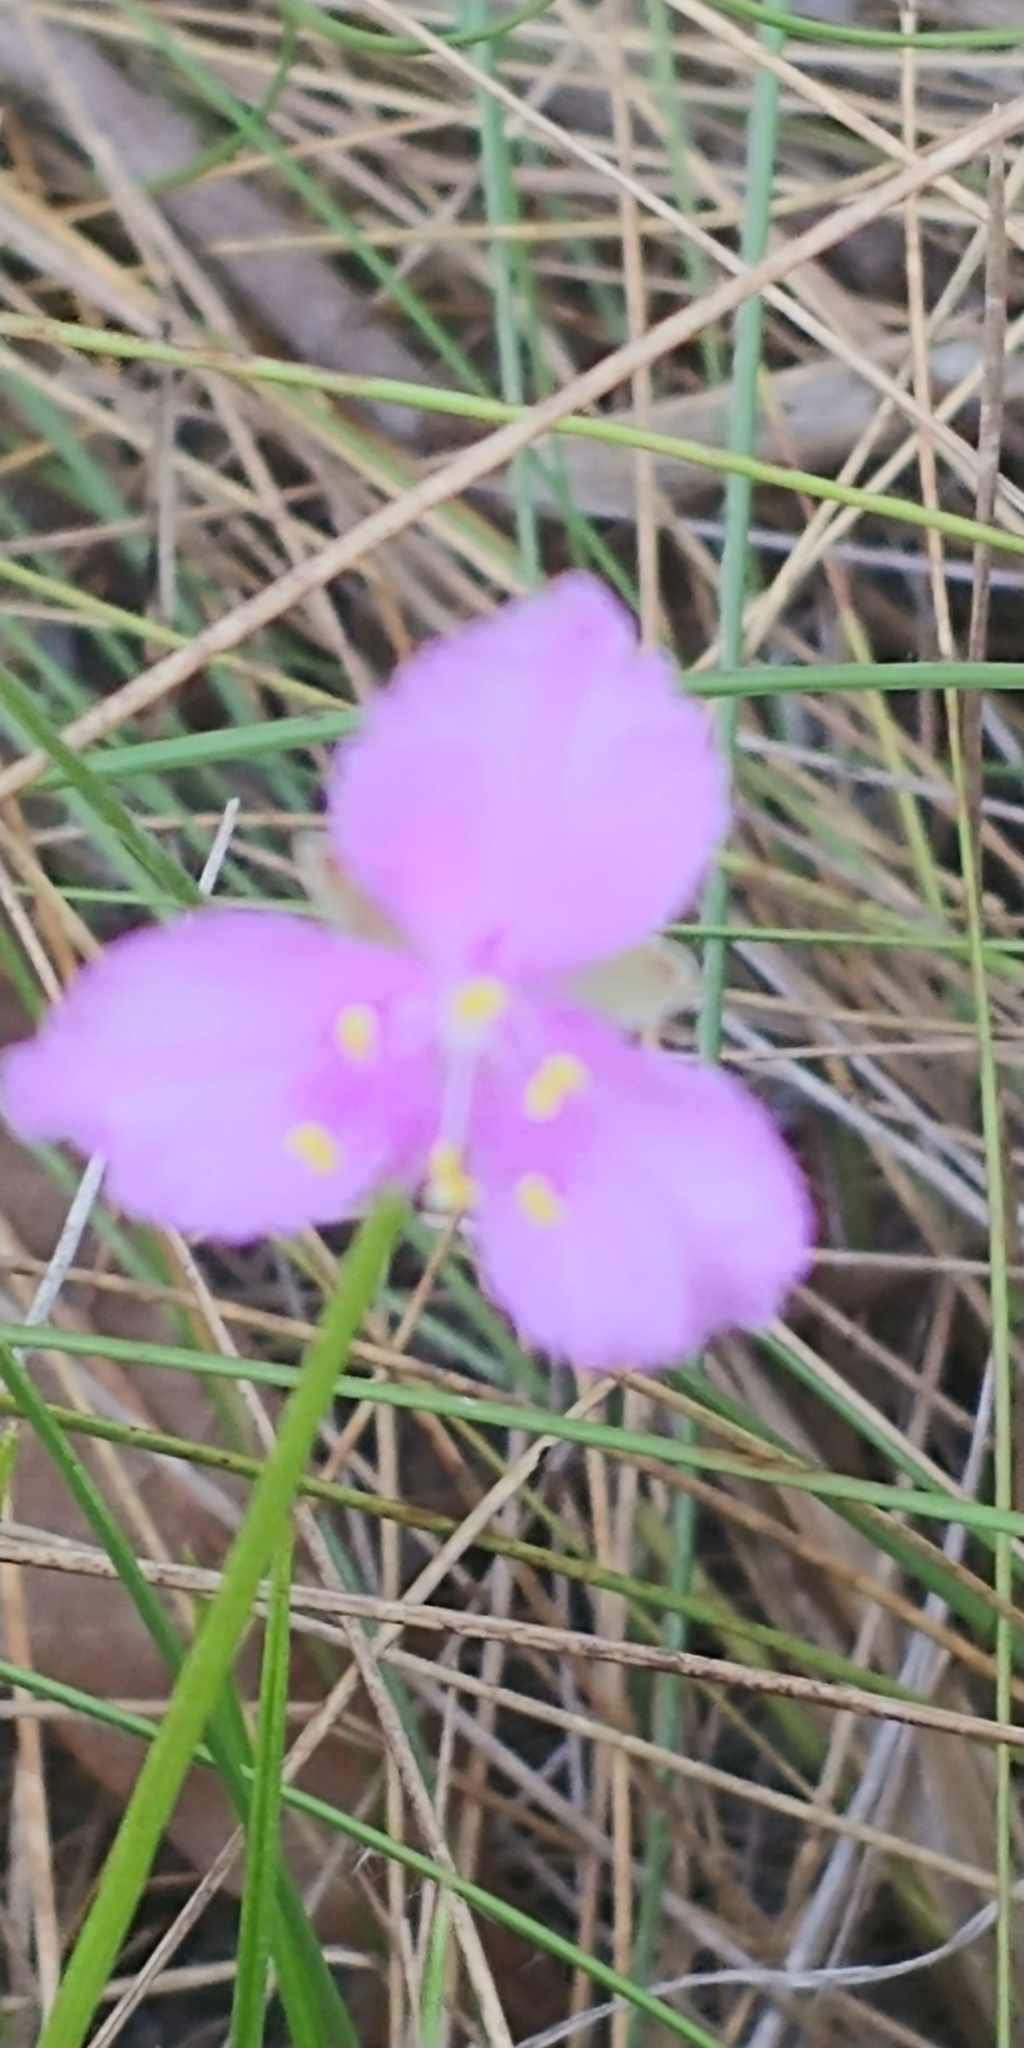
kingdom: Plantae
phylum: Tracheophyta
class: Liliopsida
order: Commelinales
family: Commelinaceae
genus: Callisia
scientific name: Callisia ornata
